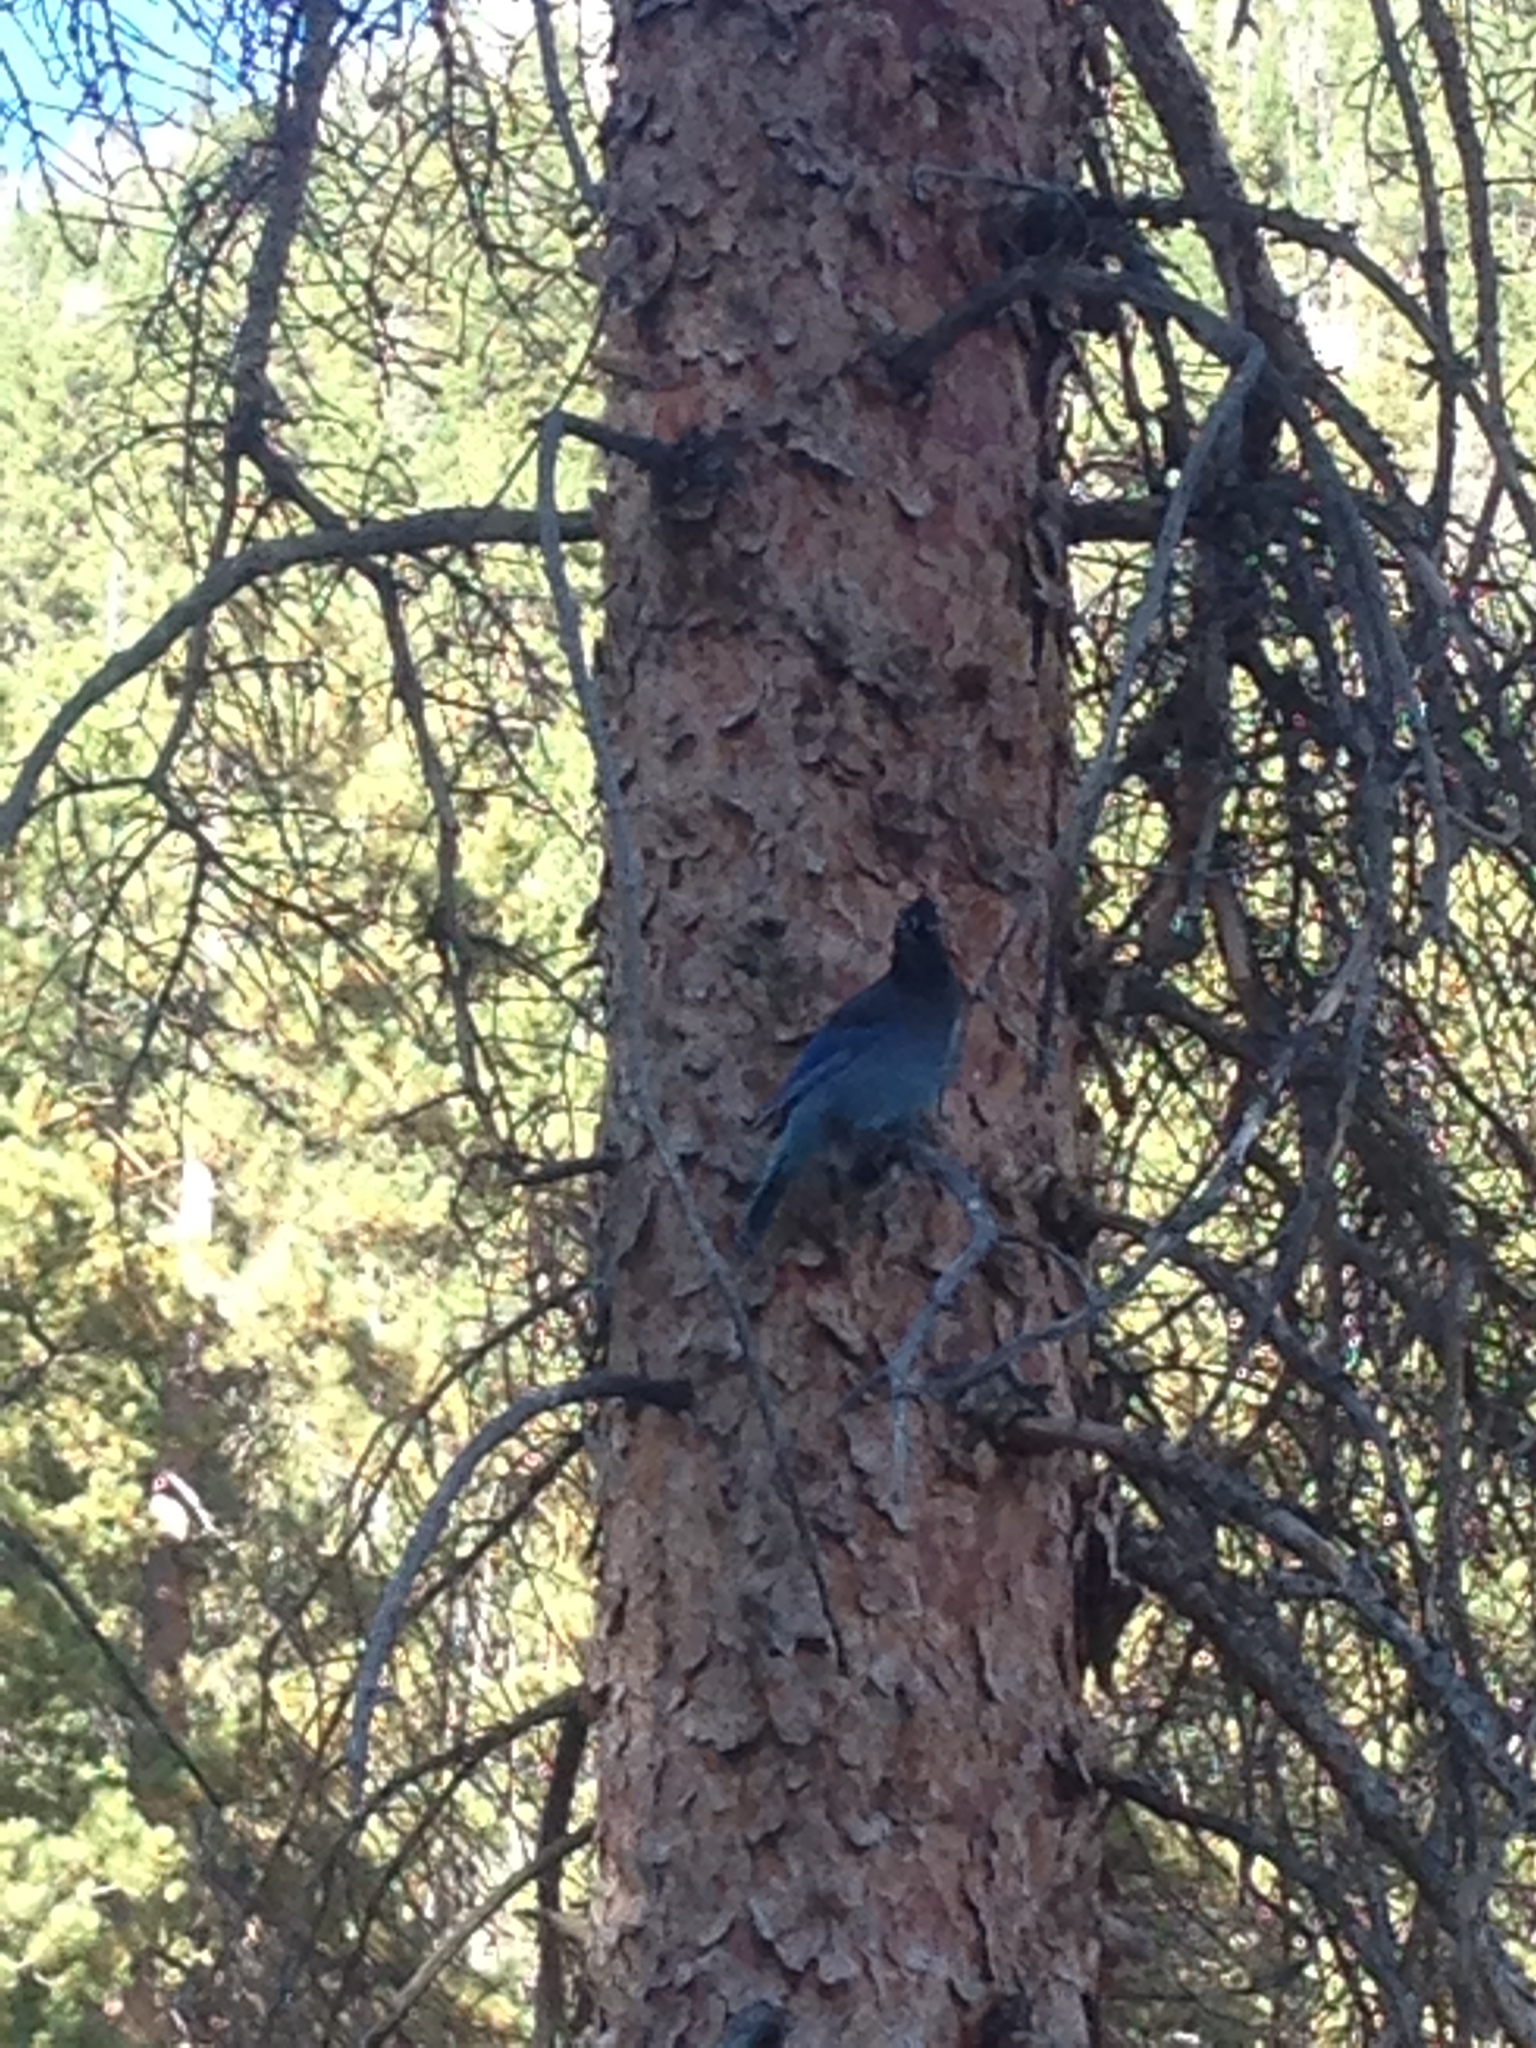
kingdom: Animalia
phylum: Chordata
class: Aves
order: Passeriformes
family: Corvidae
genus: Cyanocitta
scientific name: Cyanocitta stelleri
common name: Steller's jay
